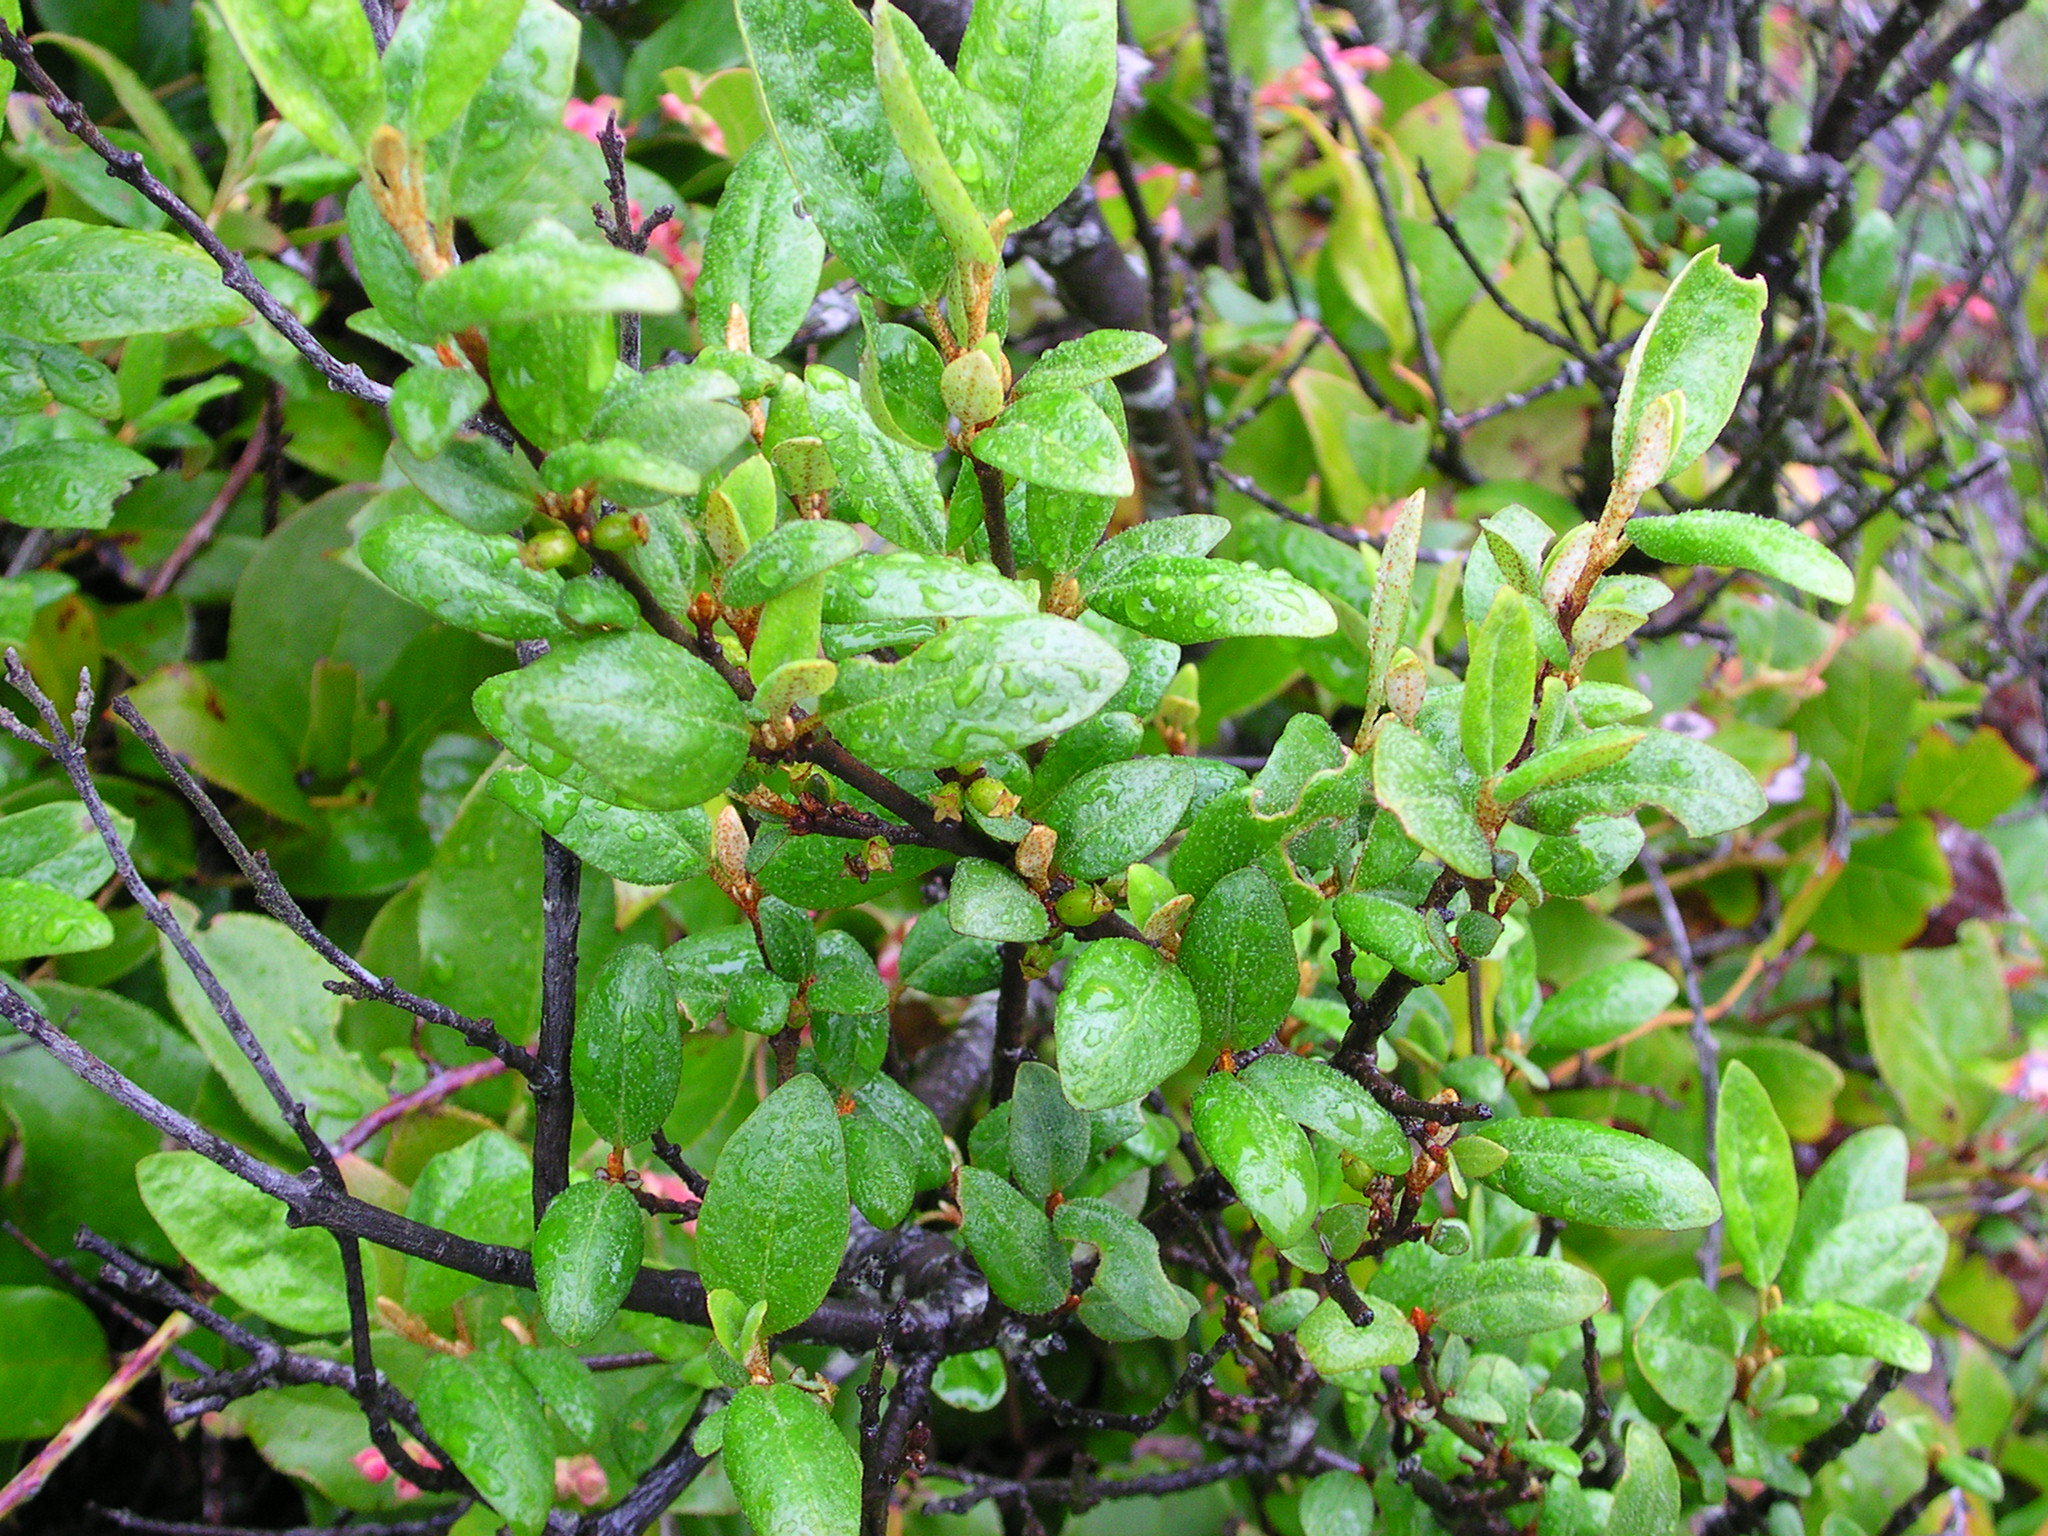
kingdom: Plantae
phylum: Tracheophyta
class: Magnoliopsida
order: Rosales
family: Elaeagnaceae
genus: Shepherdia
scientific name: Shepherdia canadensis
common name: Soapberry
